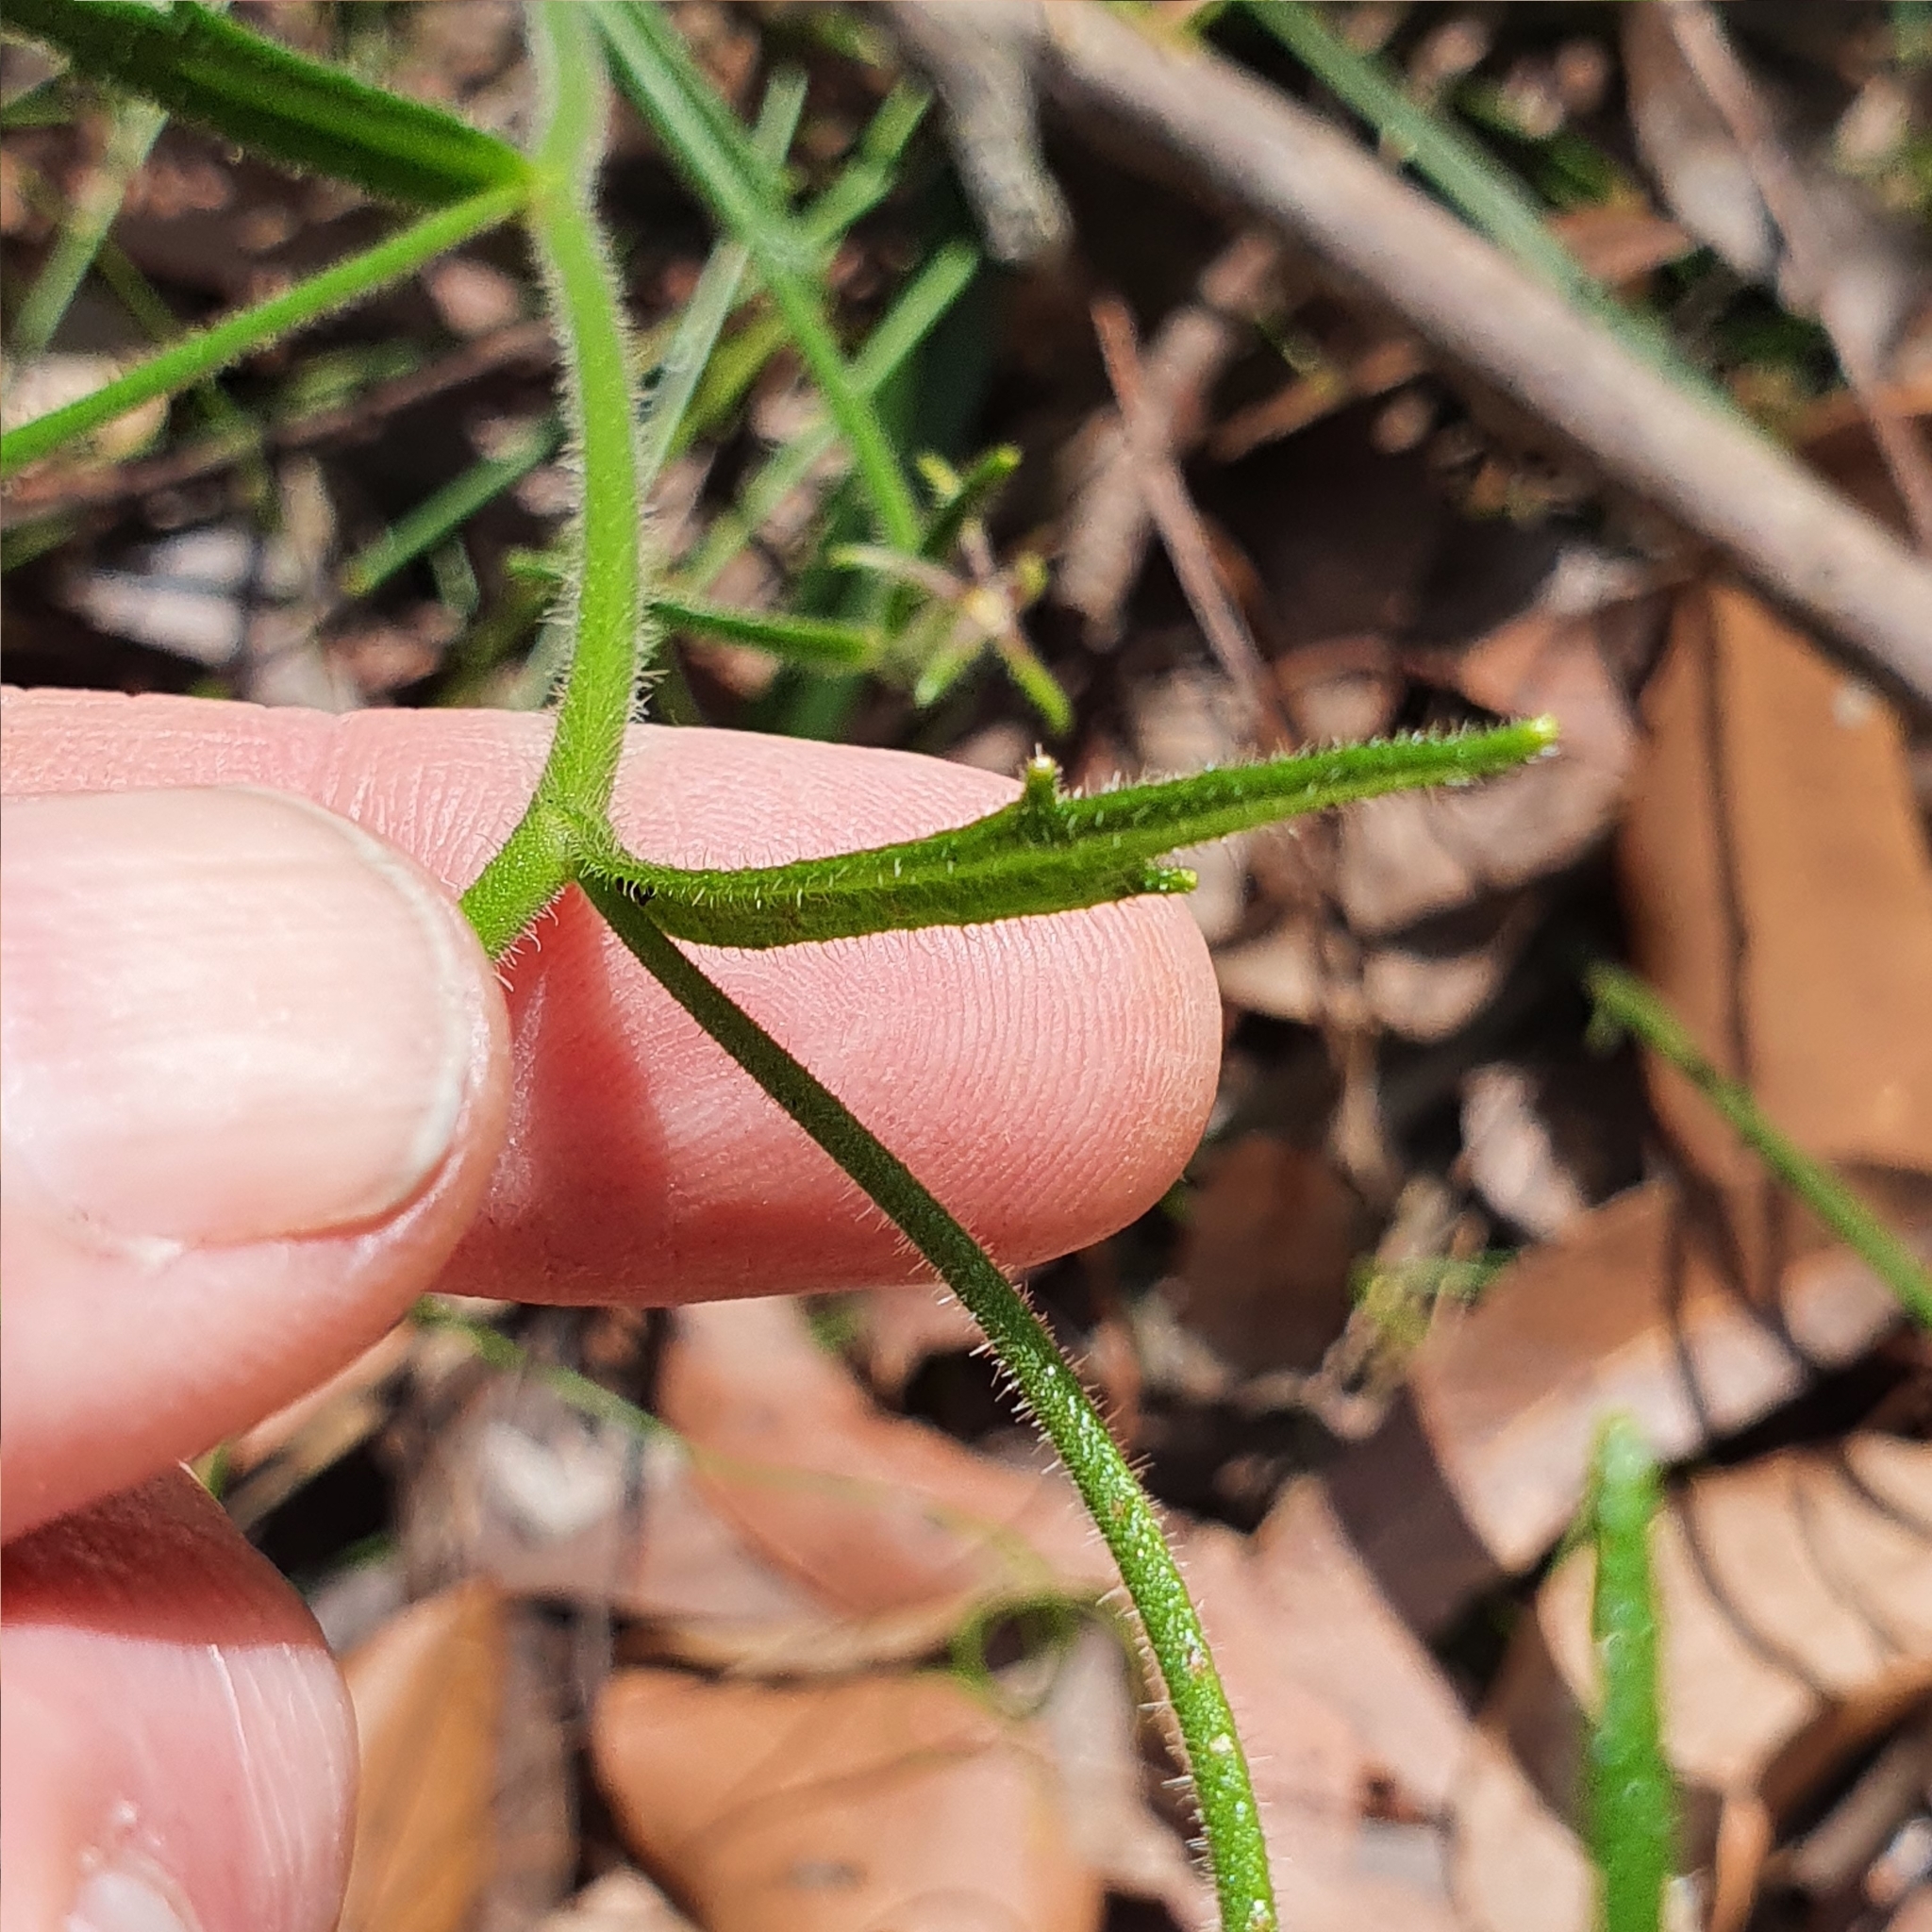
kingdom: Plantae
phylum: Tracheophyta
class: Magnoliopsida
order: Asterales
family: Goodeniaceae
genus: Scaevola
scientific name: Scaevola ramosissima
